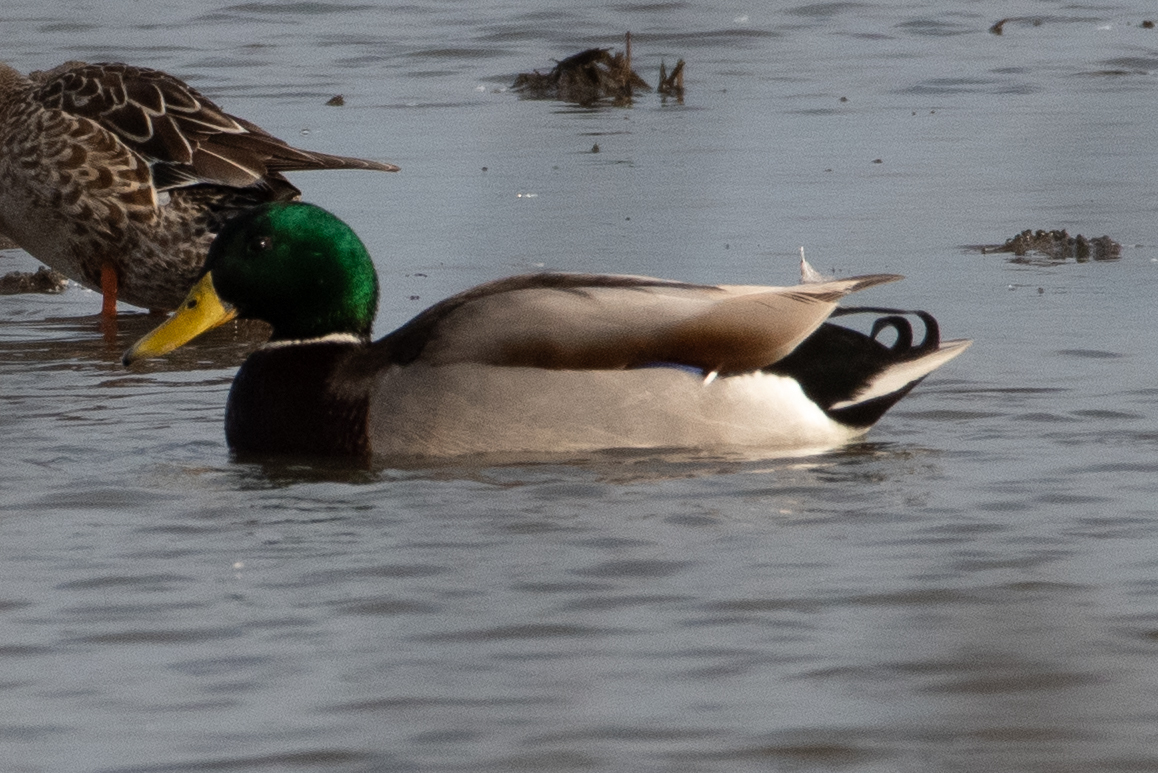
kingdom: Animalia
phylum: Chordata
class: Aves
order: Anseriformes
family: Anatidae
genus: Anas
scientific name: Anas platyrhynchos
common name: Mallard
